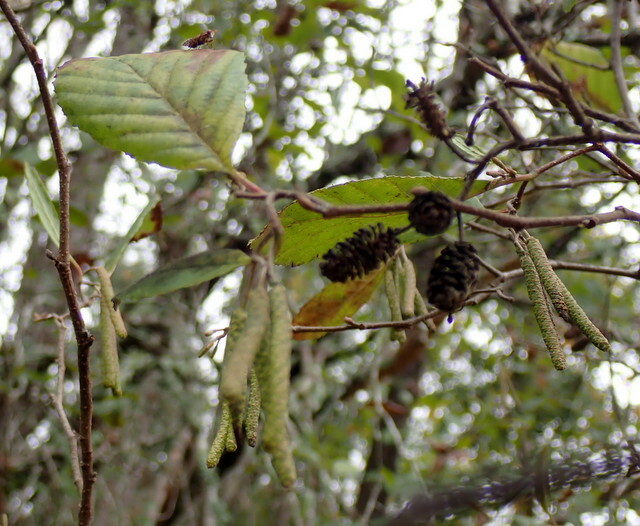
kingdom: Plantae
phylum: Tracheophyta
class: Magnoliopsida
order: Fagales
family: Betulaceae
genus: Alnus
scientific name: Alnus serrulata
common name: Hazel alder
